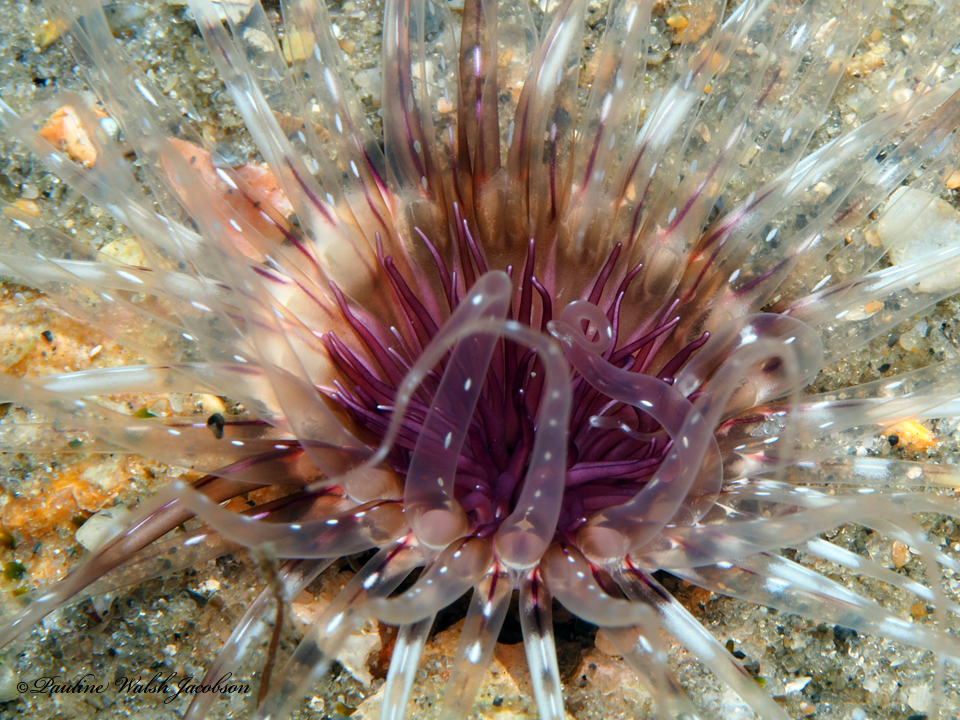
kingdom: Animalia
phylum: Cnidaria
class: Anthozoa
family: Cerianthidae
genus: Ceriantheopsis
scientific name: Ceriantheopsis americana
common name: American tube-dwelling anemone
